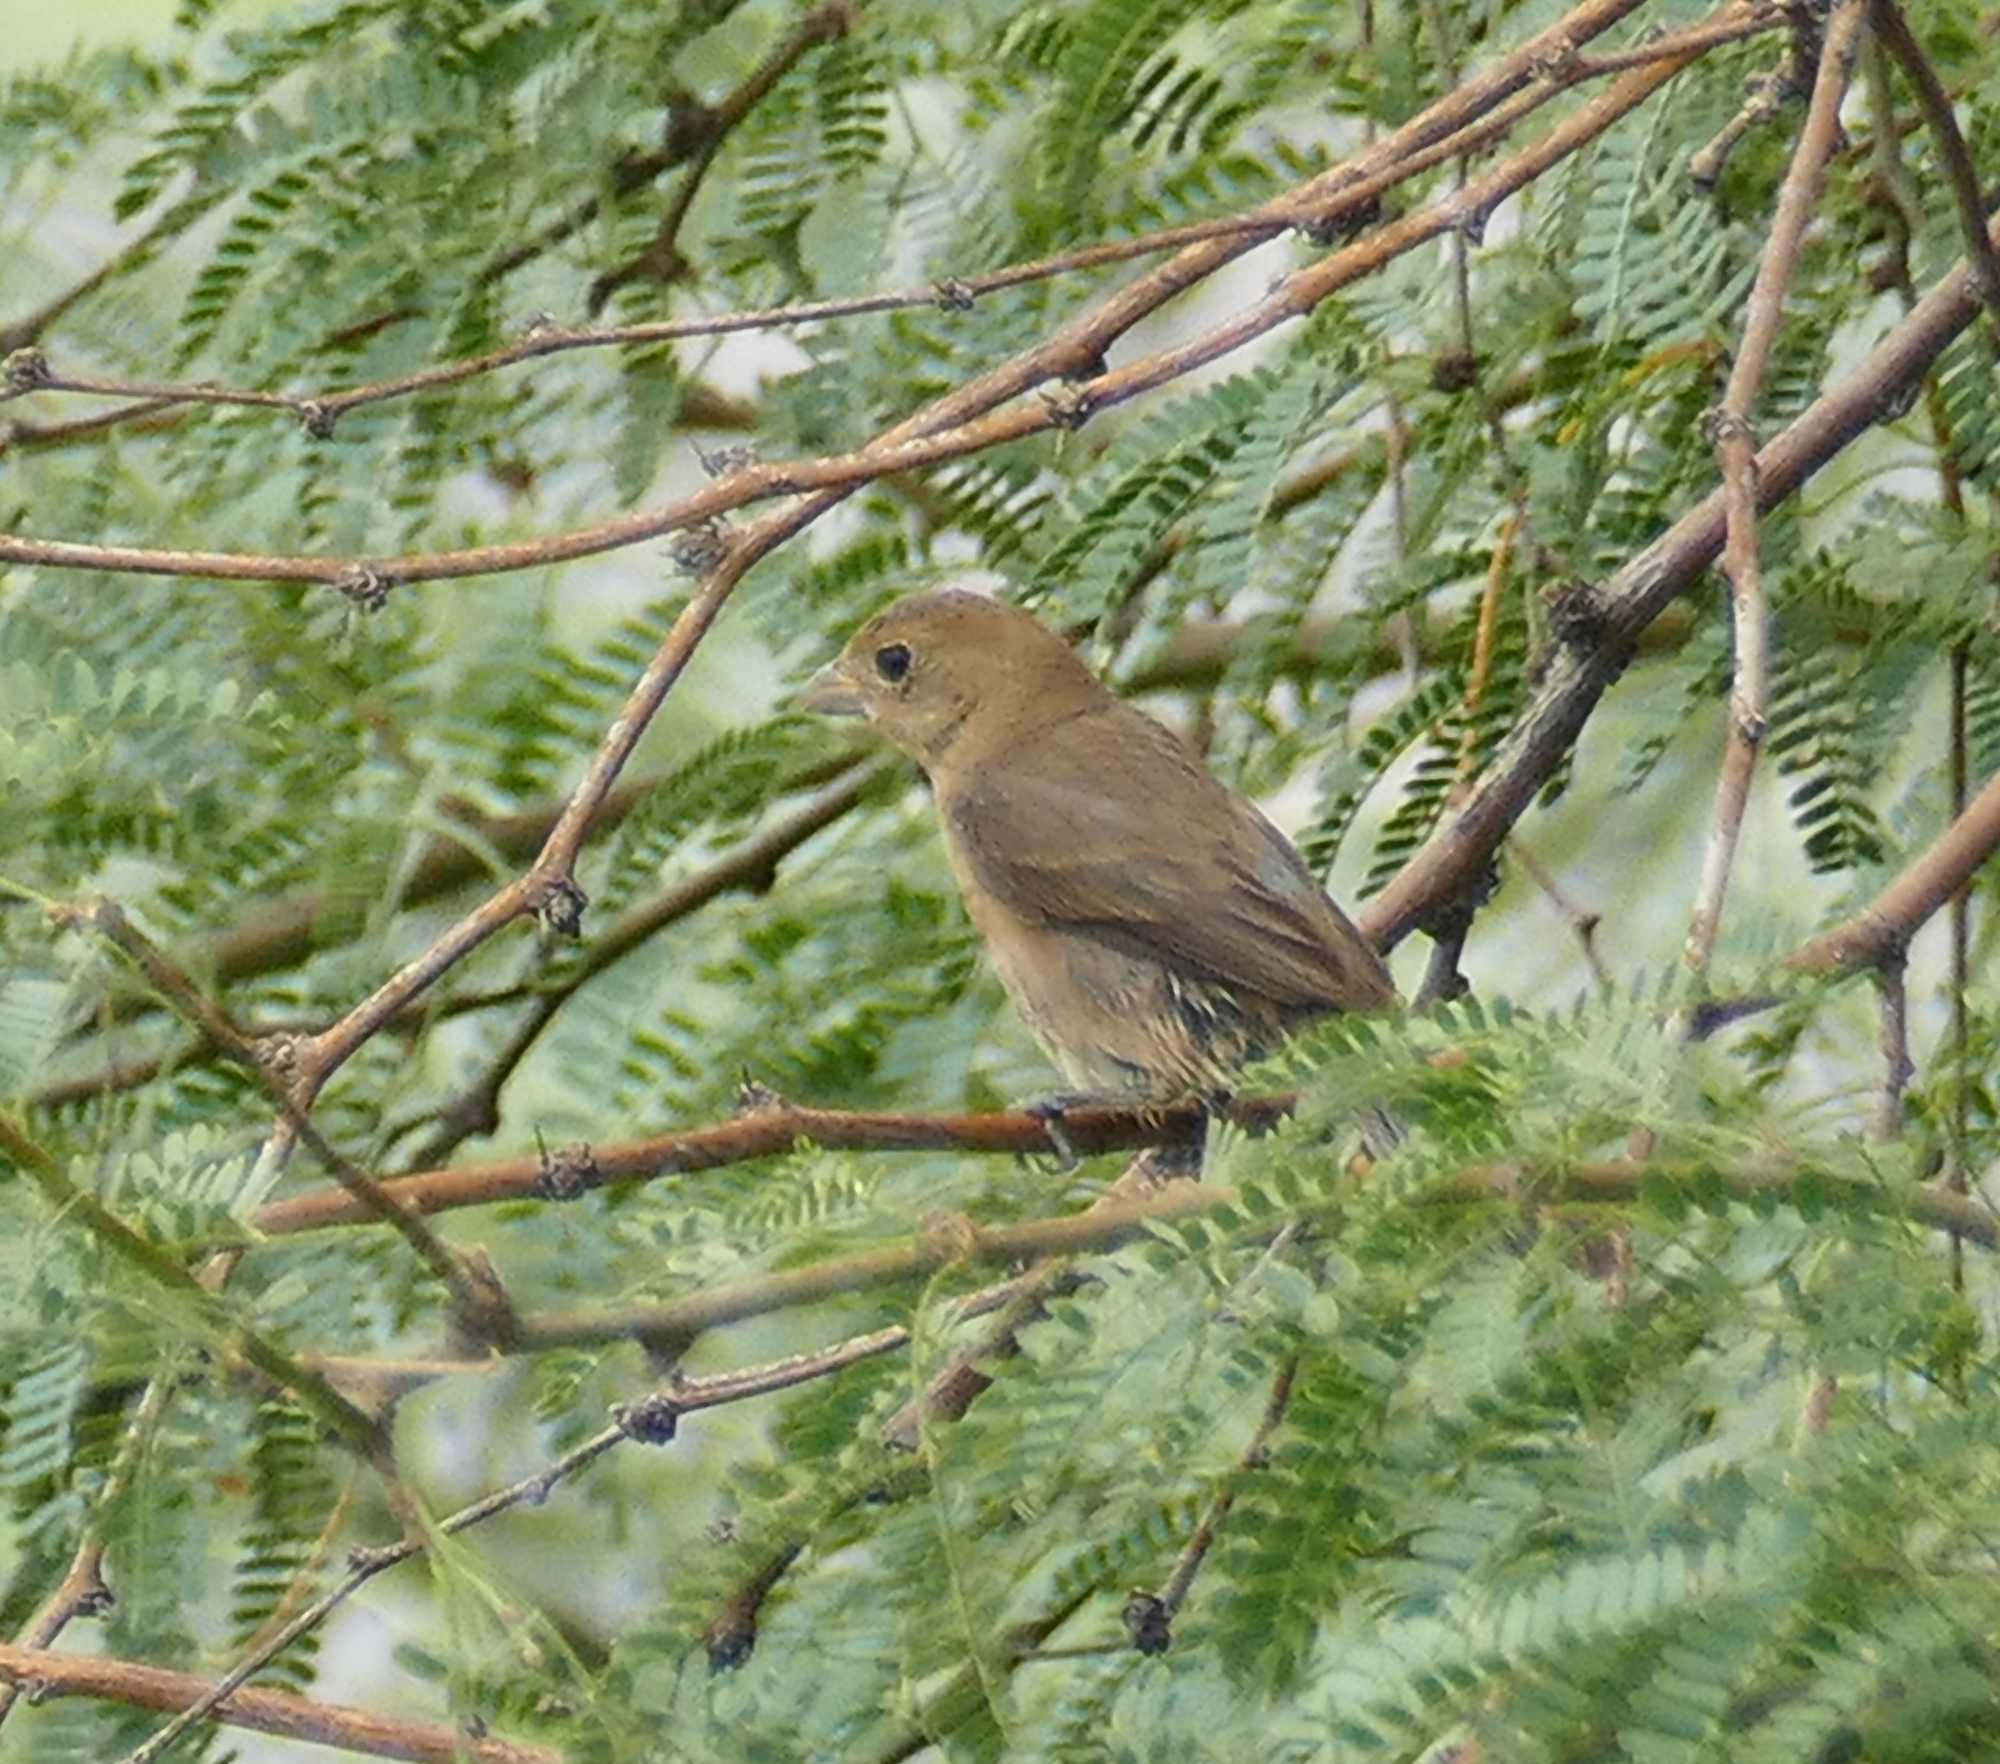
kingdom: Animalia
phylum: Chordata
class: Aves
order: Passeriformes
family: Cardinalidae
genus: Passerina
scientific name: Passerina versicolor
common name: Varied bunting
